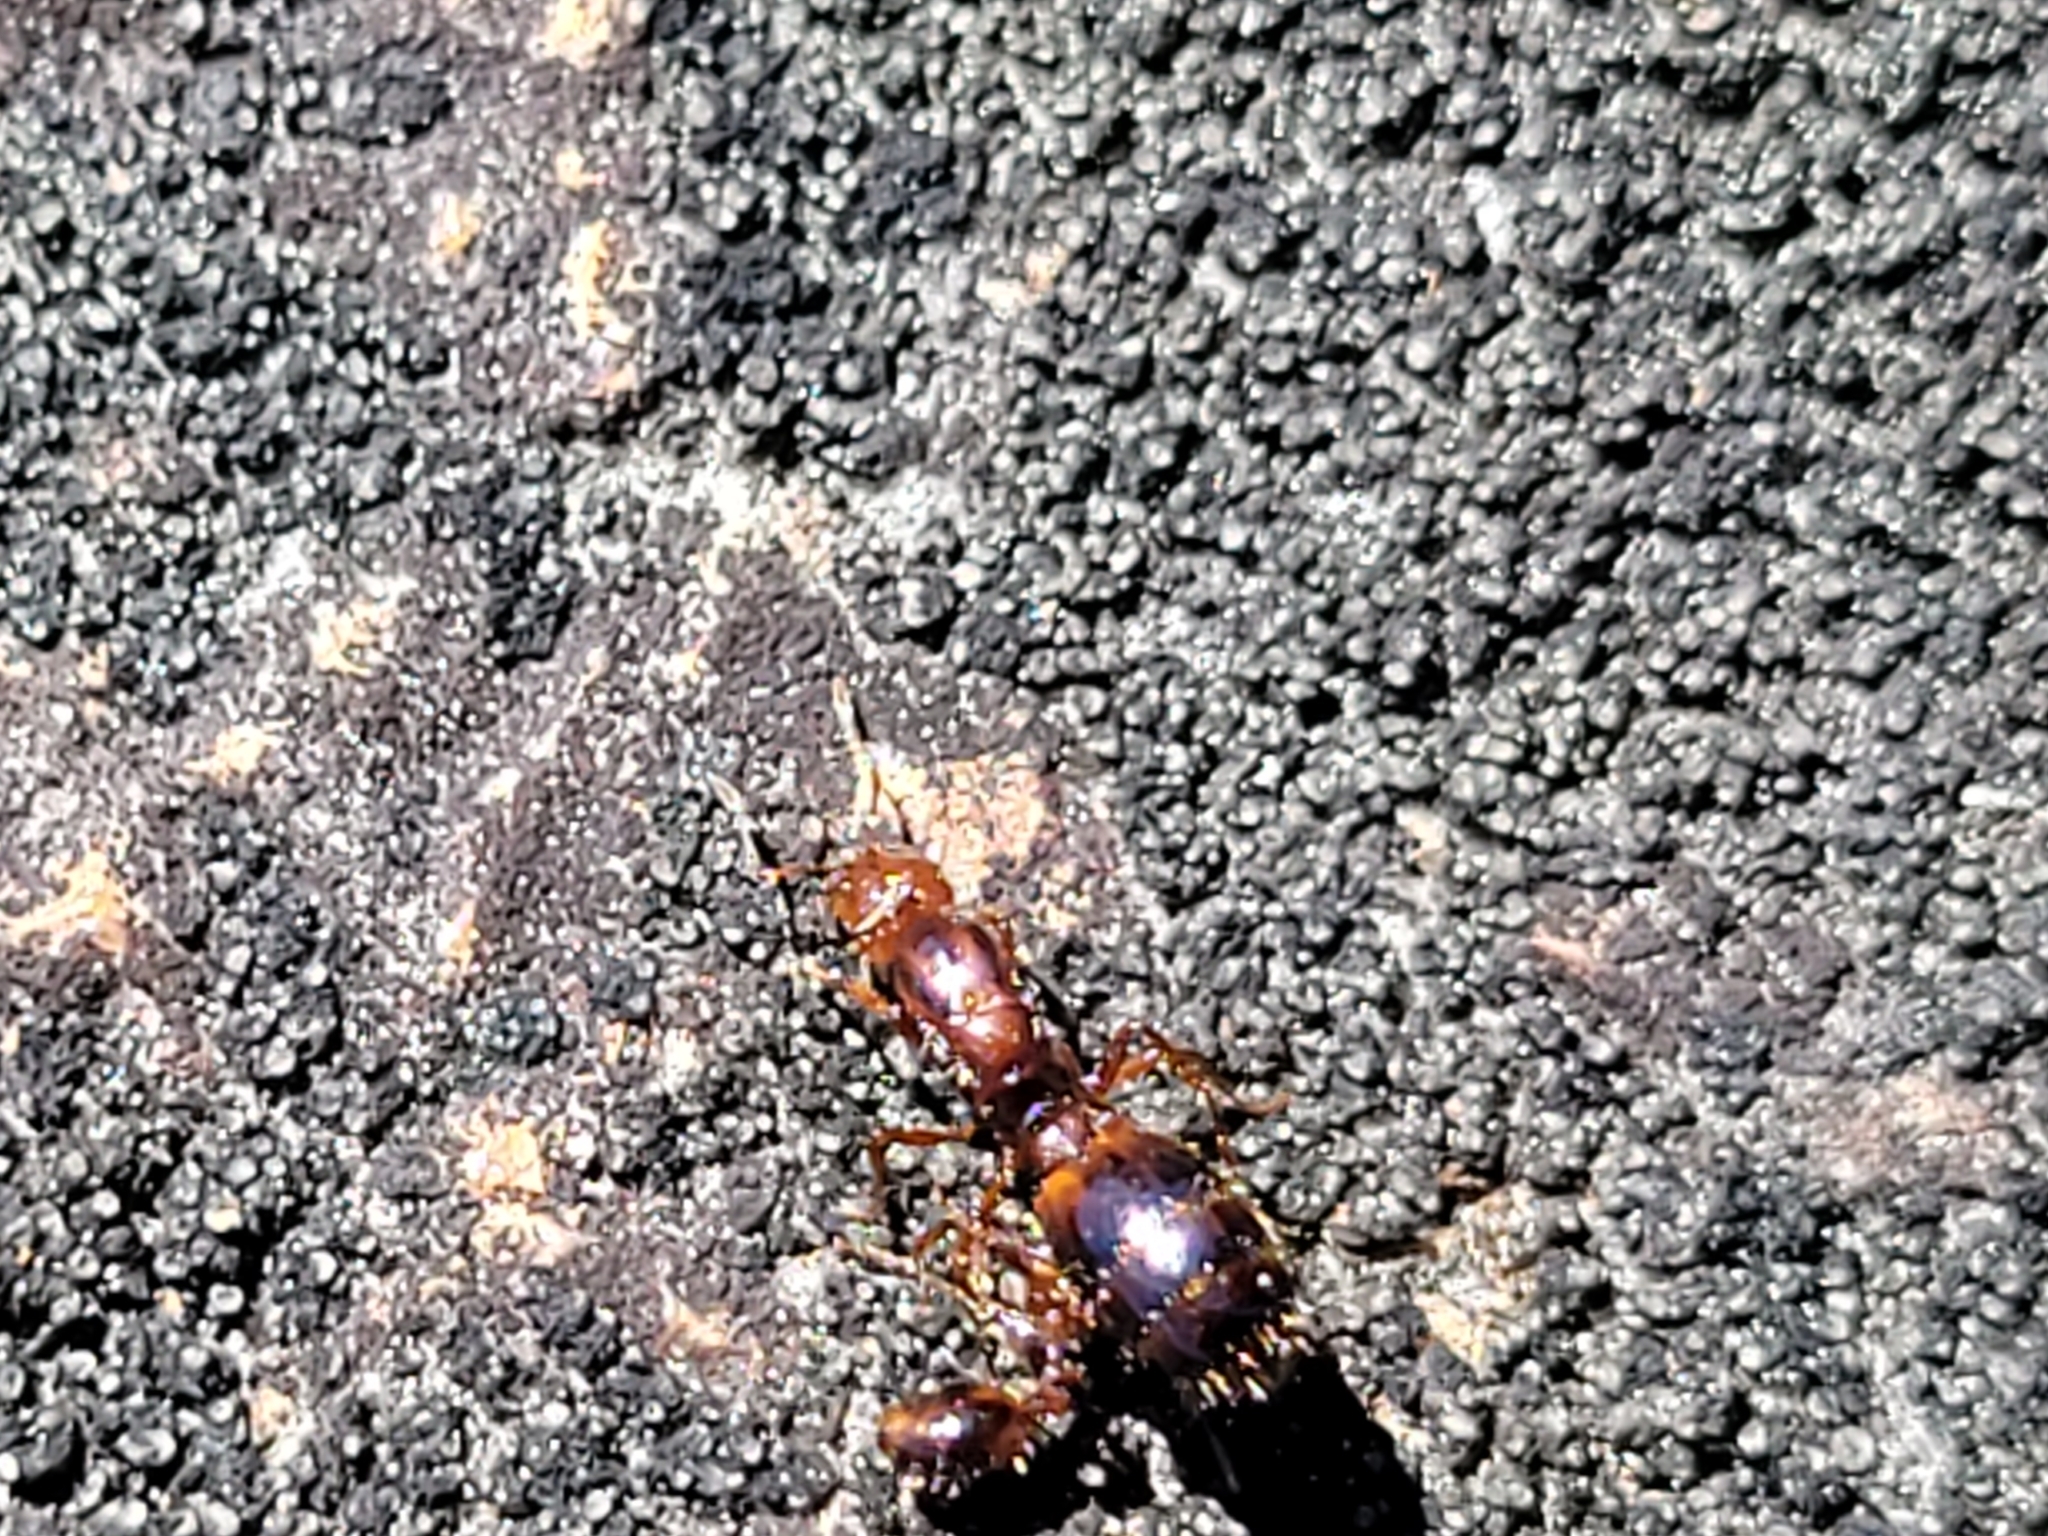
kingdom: Animalia
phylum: Arthropoda
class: Insecta
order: Hymenoptera
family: Formicidae
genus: Solenopsis
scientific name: Solenopsis invicta
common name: Red imported fire ant
